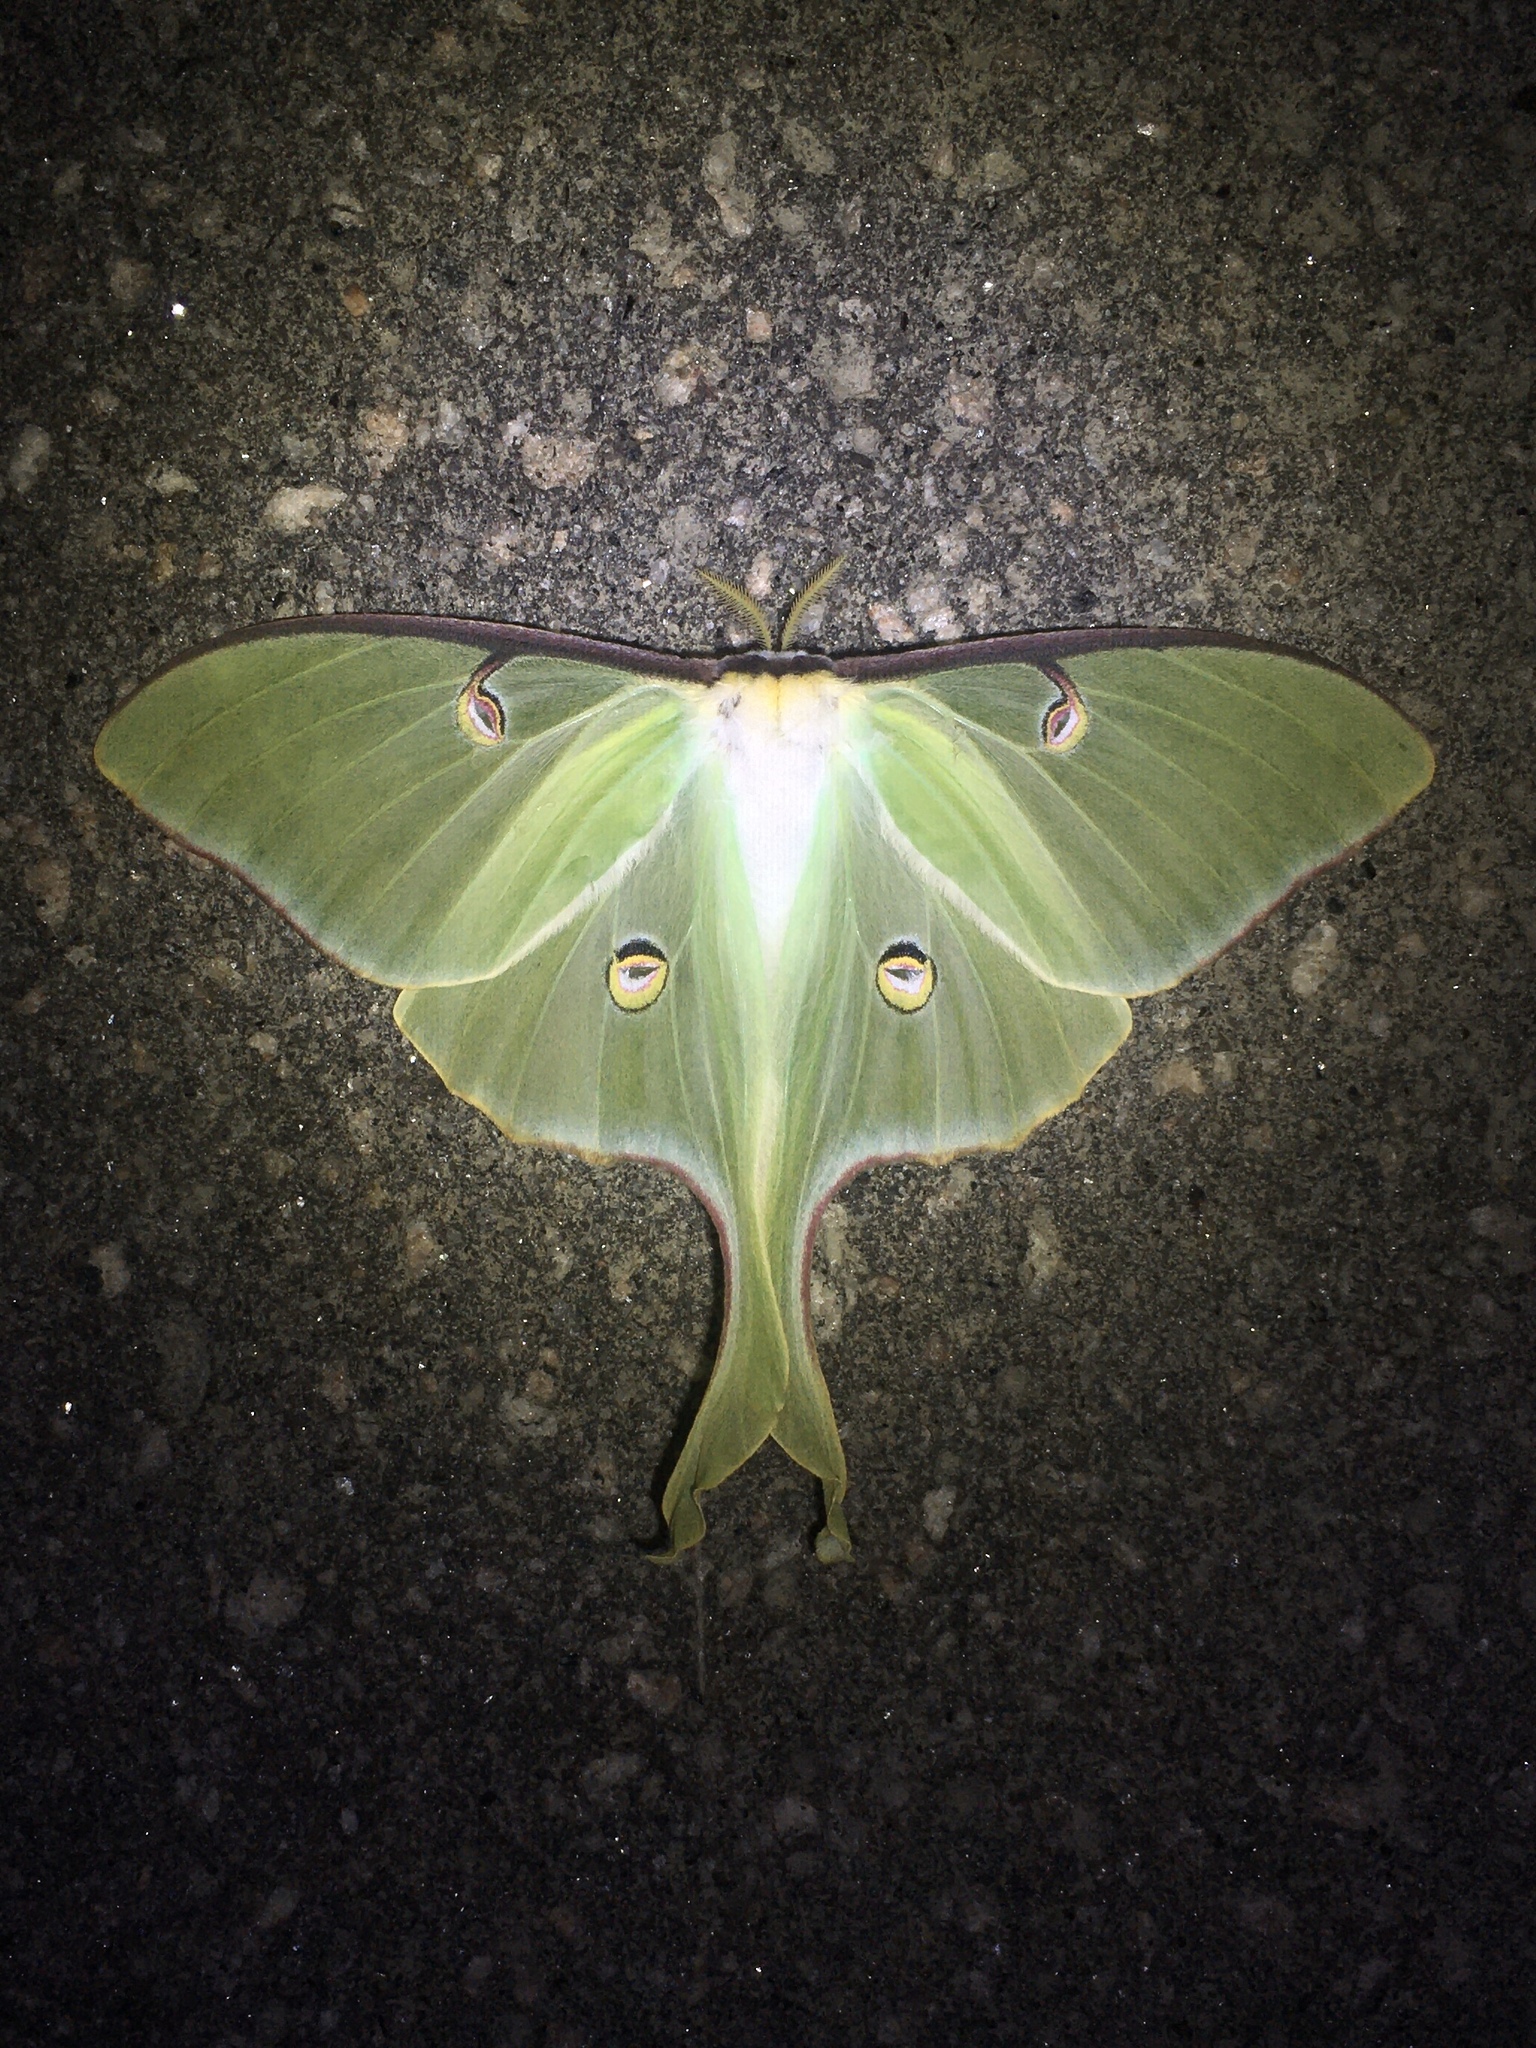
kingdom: Animalia
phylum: Arthropoda
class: Insecta
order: Lepidoptera
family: Saturniidae
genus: Actias
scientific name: Actias luna
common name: Luna moth
